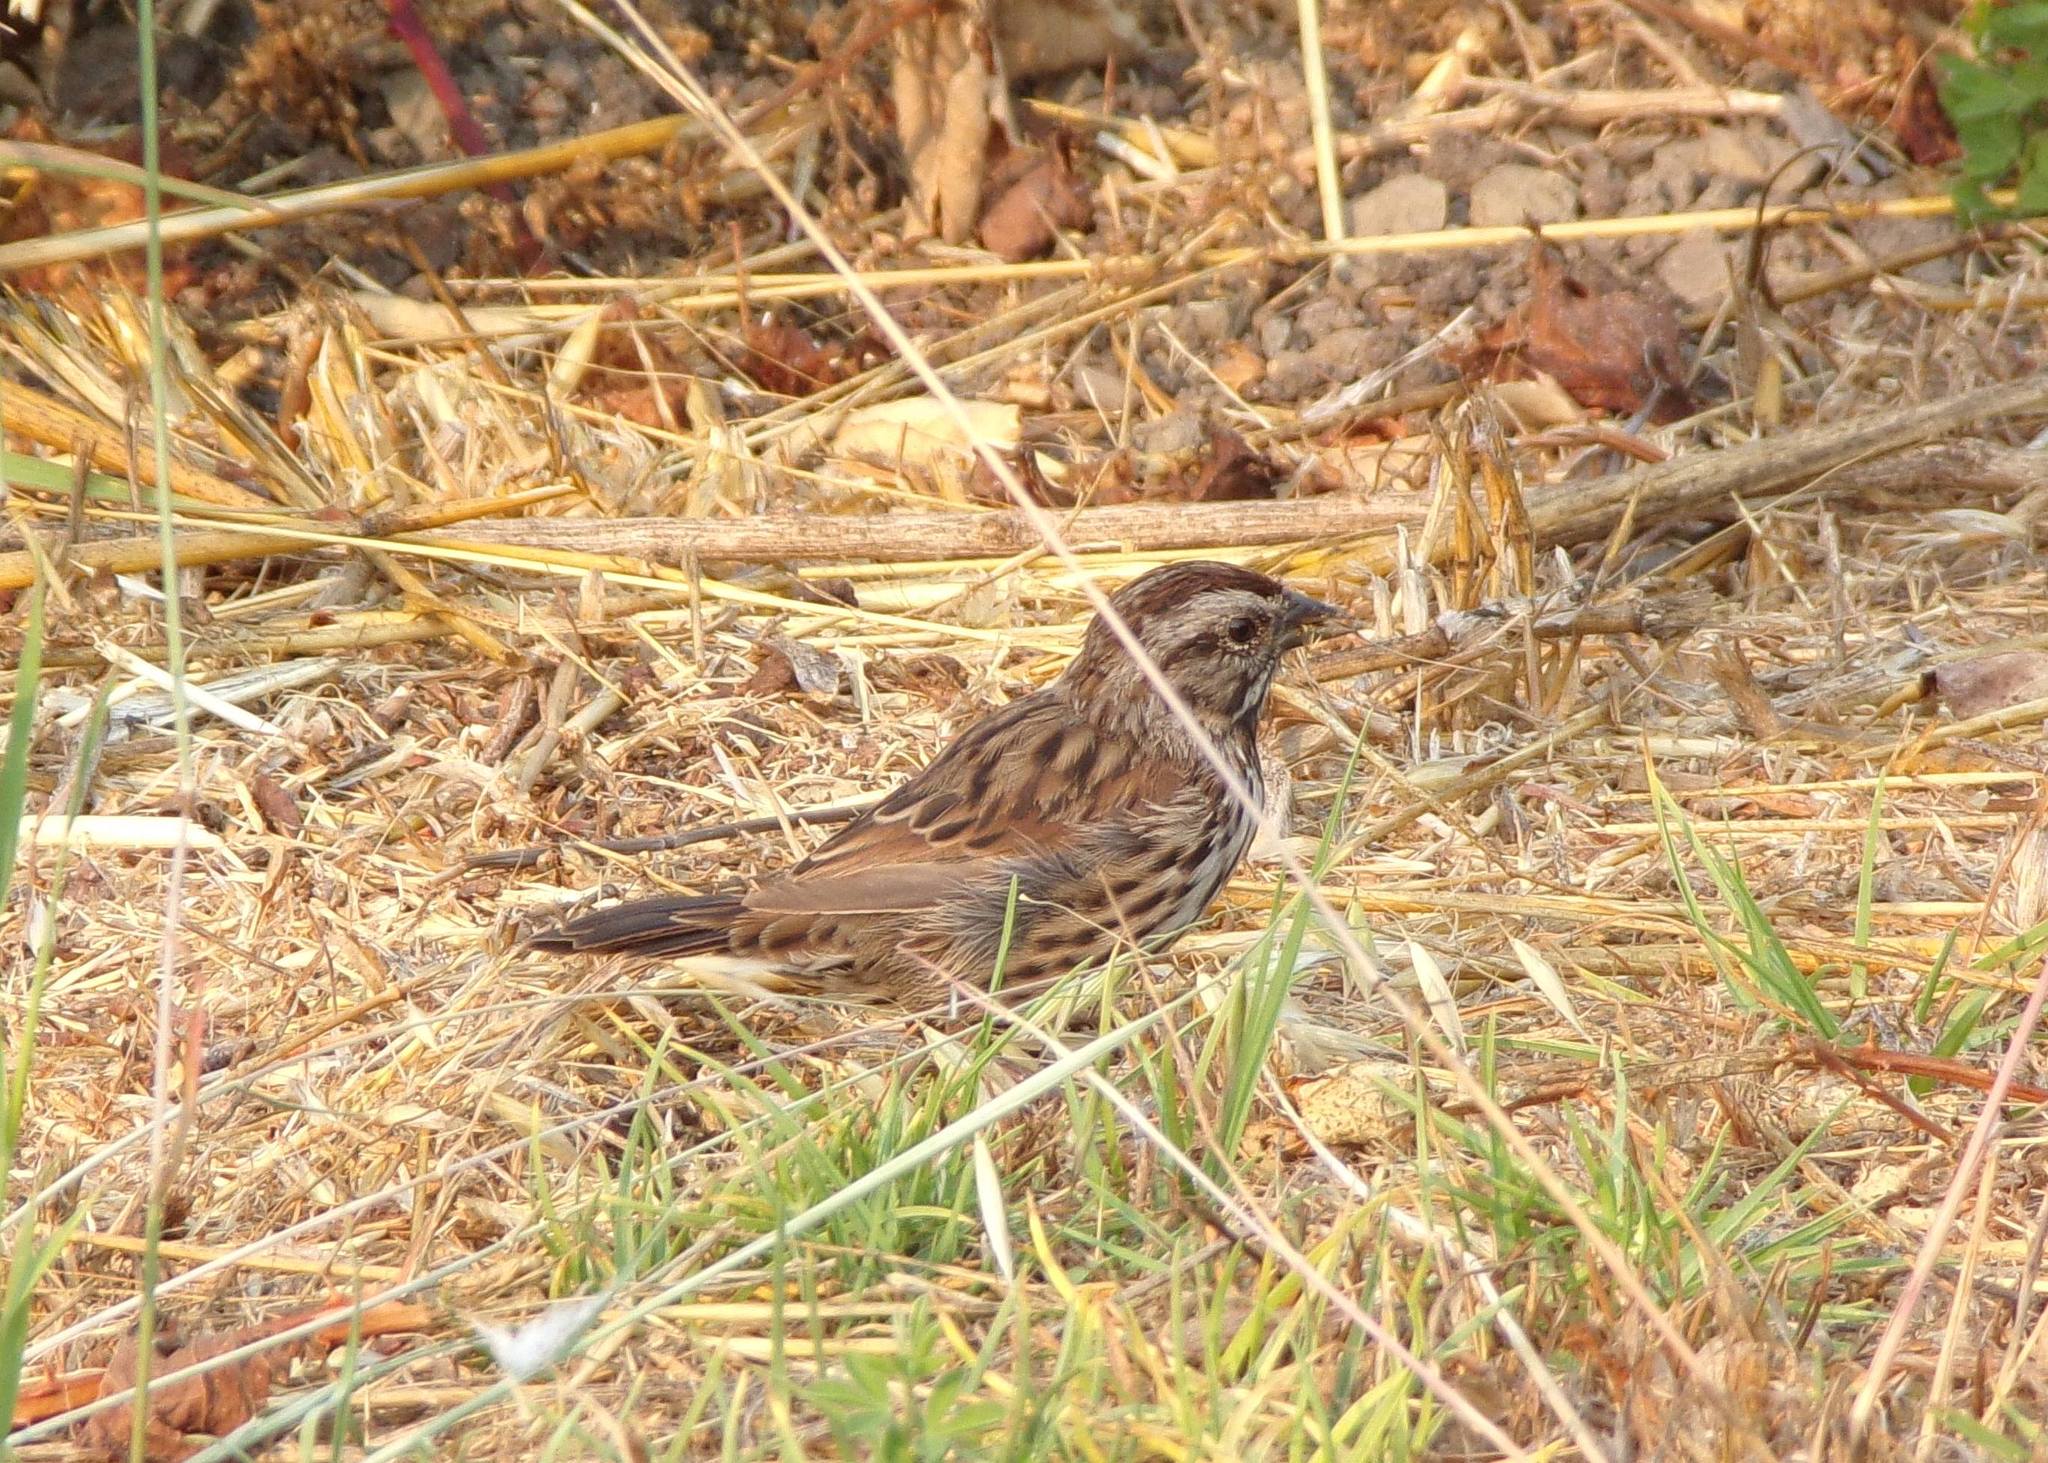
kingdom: Animalia
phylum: Chordata
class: Aves
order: Passeriformes
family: Passerellidae
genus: Melospiza
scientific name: Melospiza melodia
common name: Song sparrow
